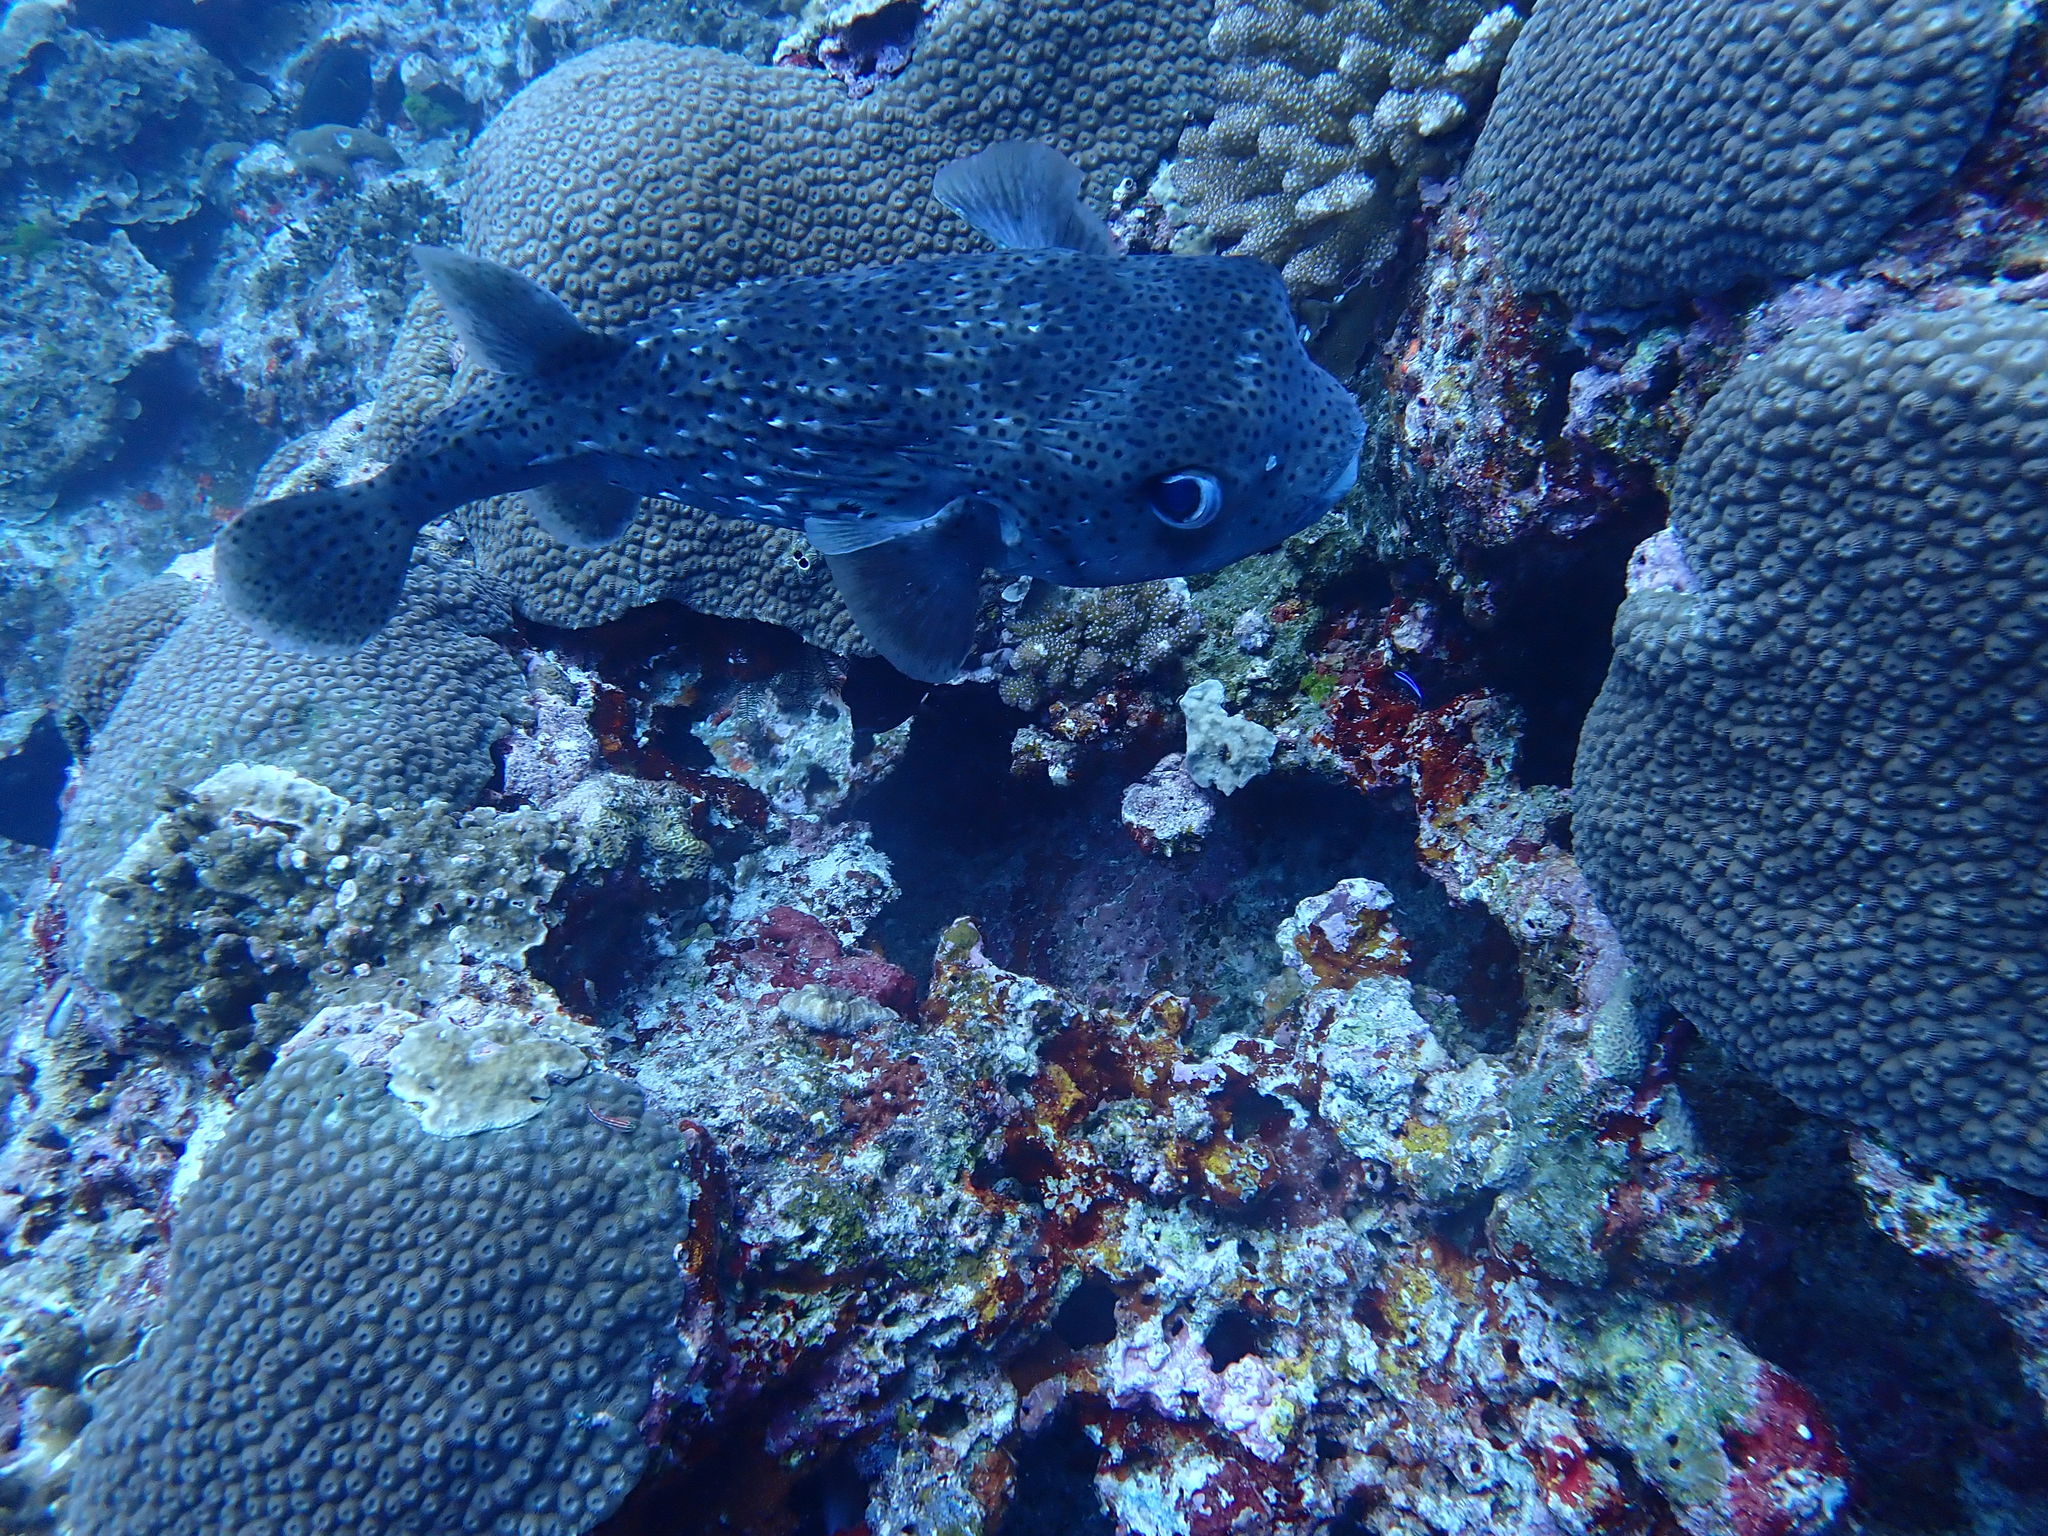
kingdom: Animalia
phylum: Chordata
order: Tetraodontiformes
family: Diodontidae
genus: Diodon
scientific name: Diodon hystrix
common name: Giant porcupinefish
